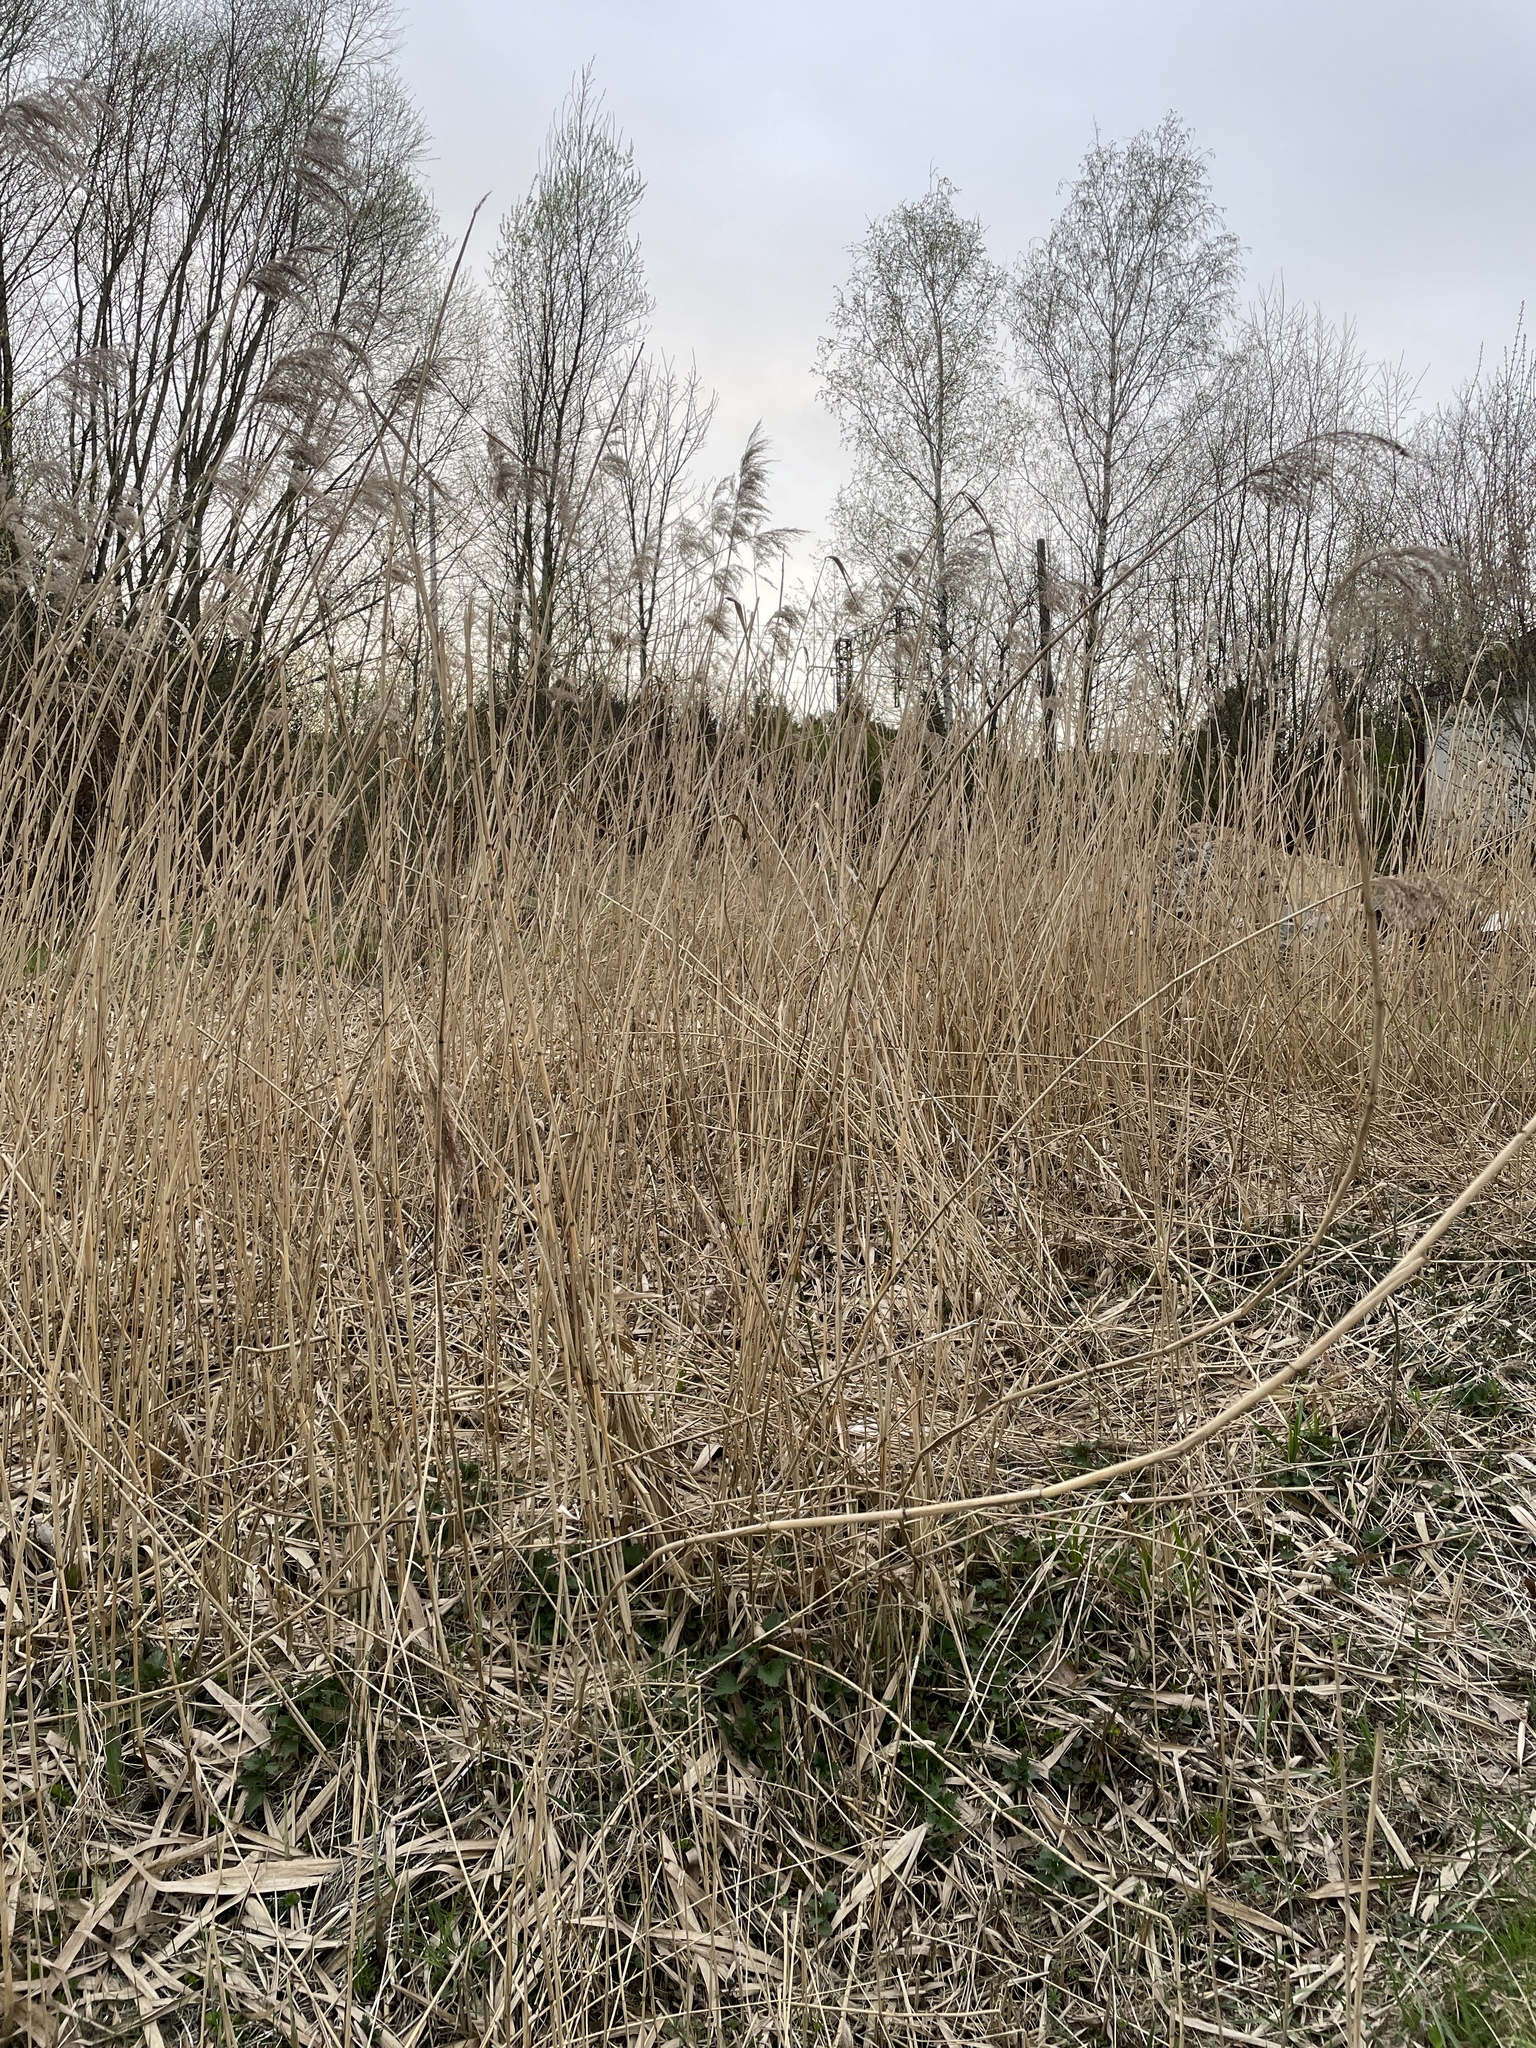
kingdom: Plantae
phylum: Tracheophyta
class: Liliopsida
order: Poales
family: Poaceae
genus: Phragmites
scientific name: Phragmites australis
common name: Common reed
